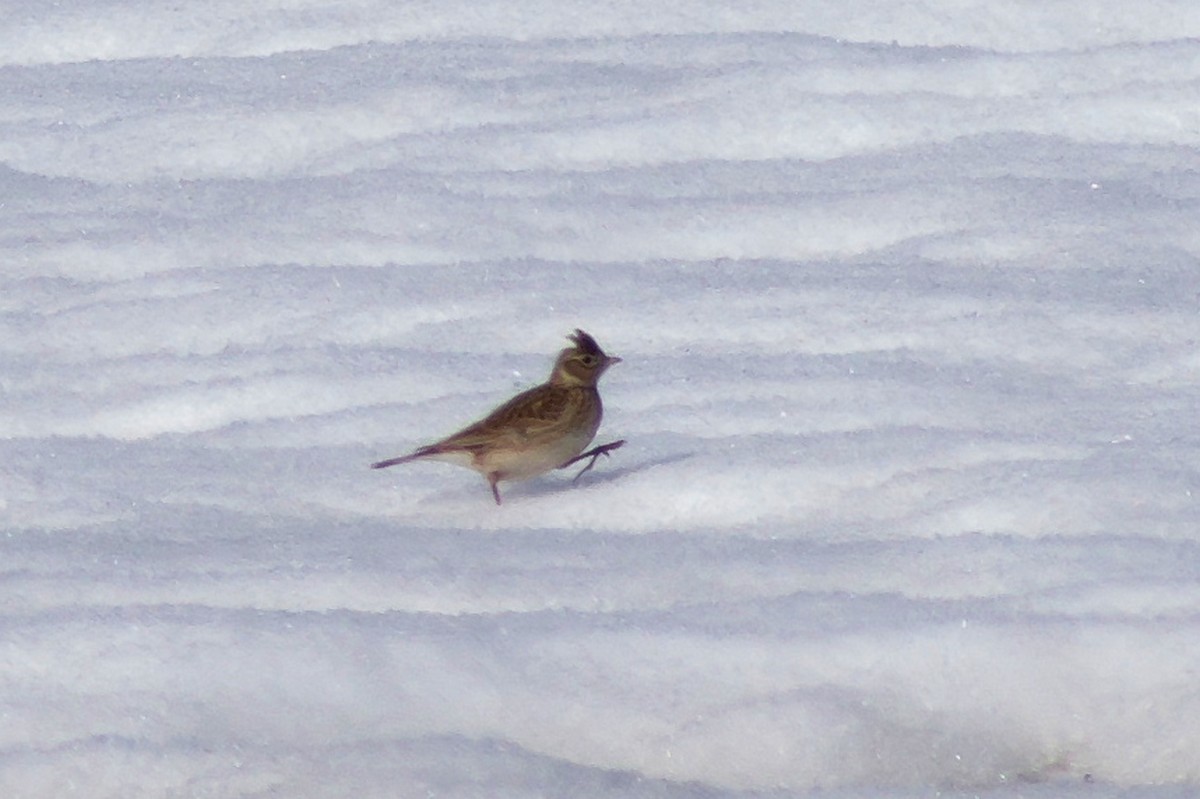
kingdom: Animalia
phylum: Chordata
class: Aves
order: Passeriformes
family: Alaudidae
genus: Alauda
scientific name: Alauda arvensis
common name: Eurasian skylark
